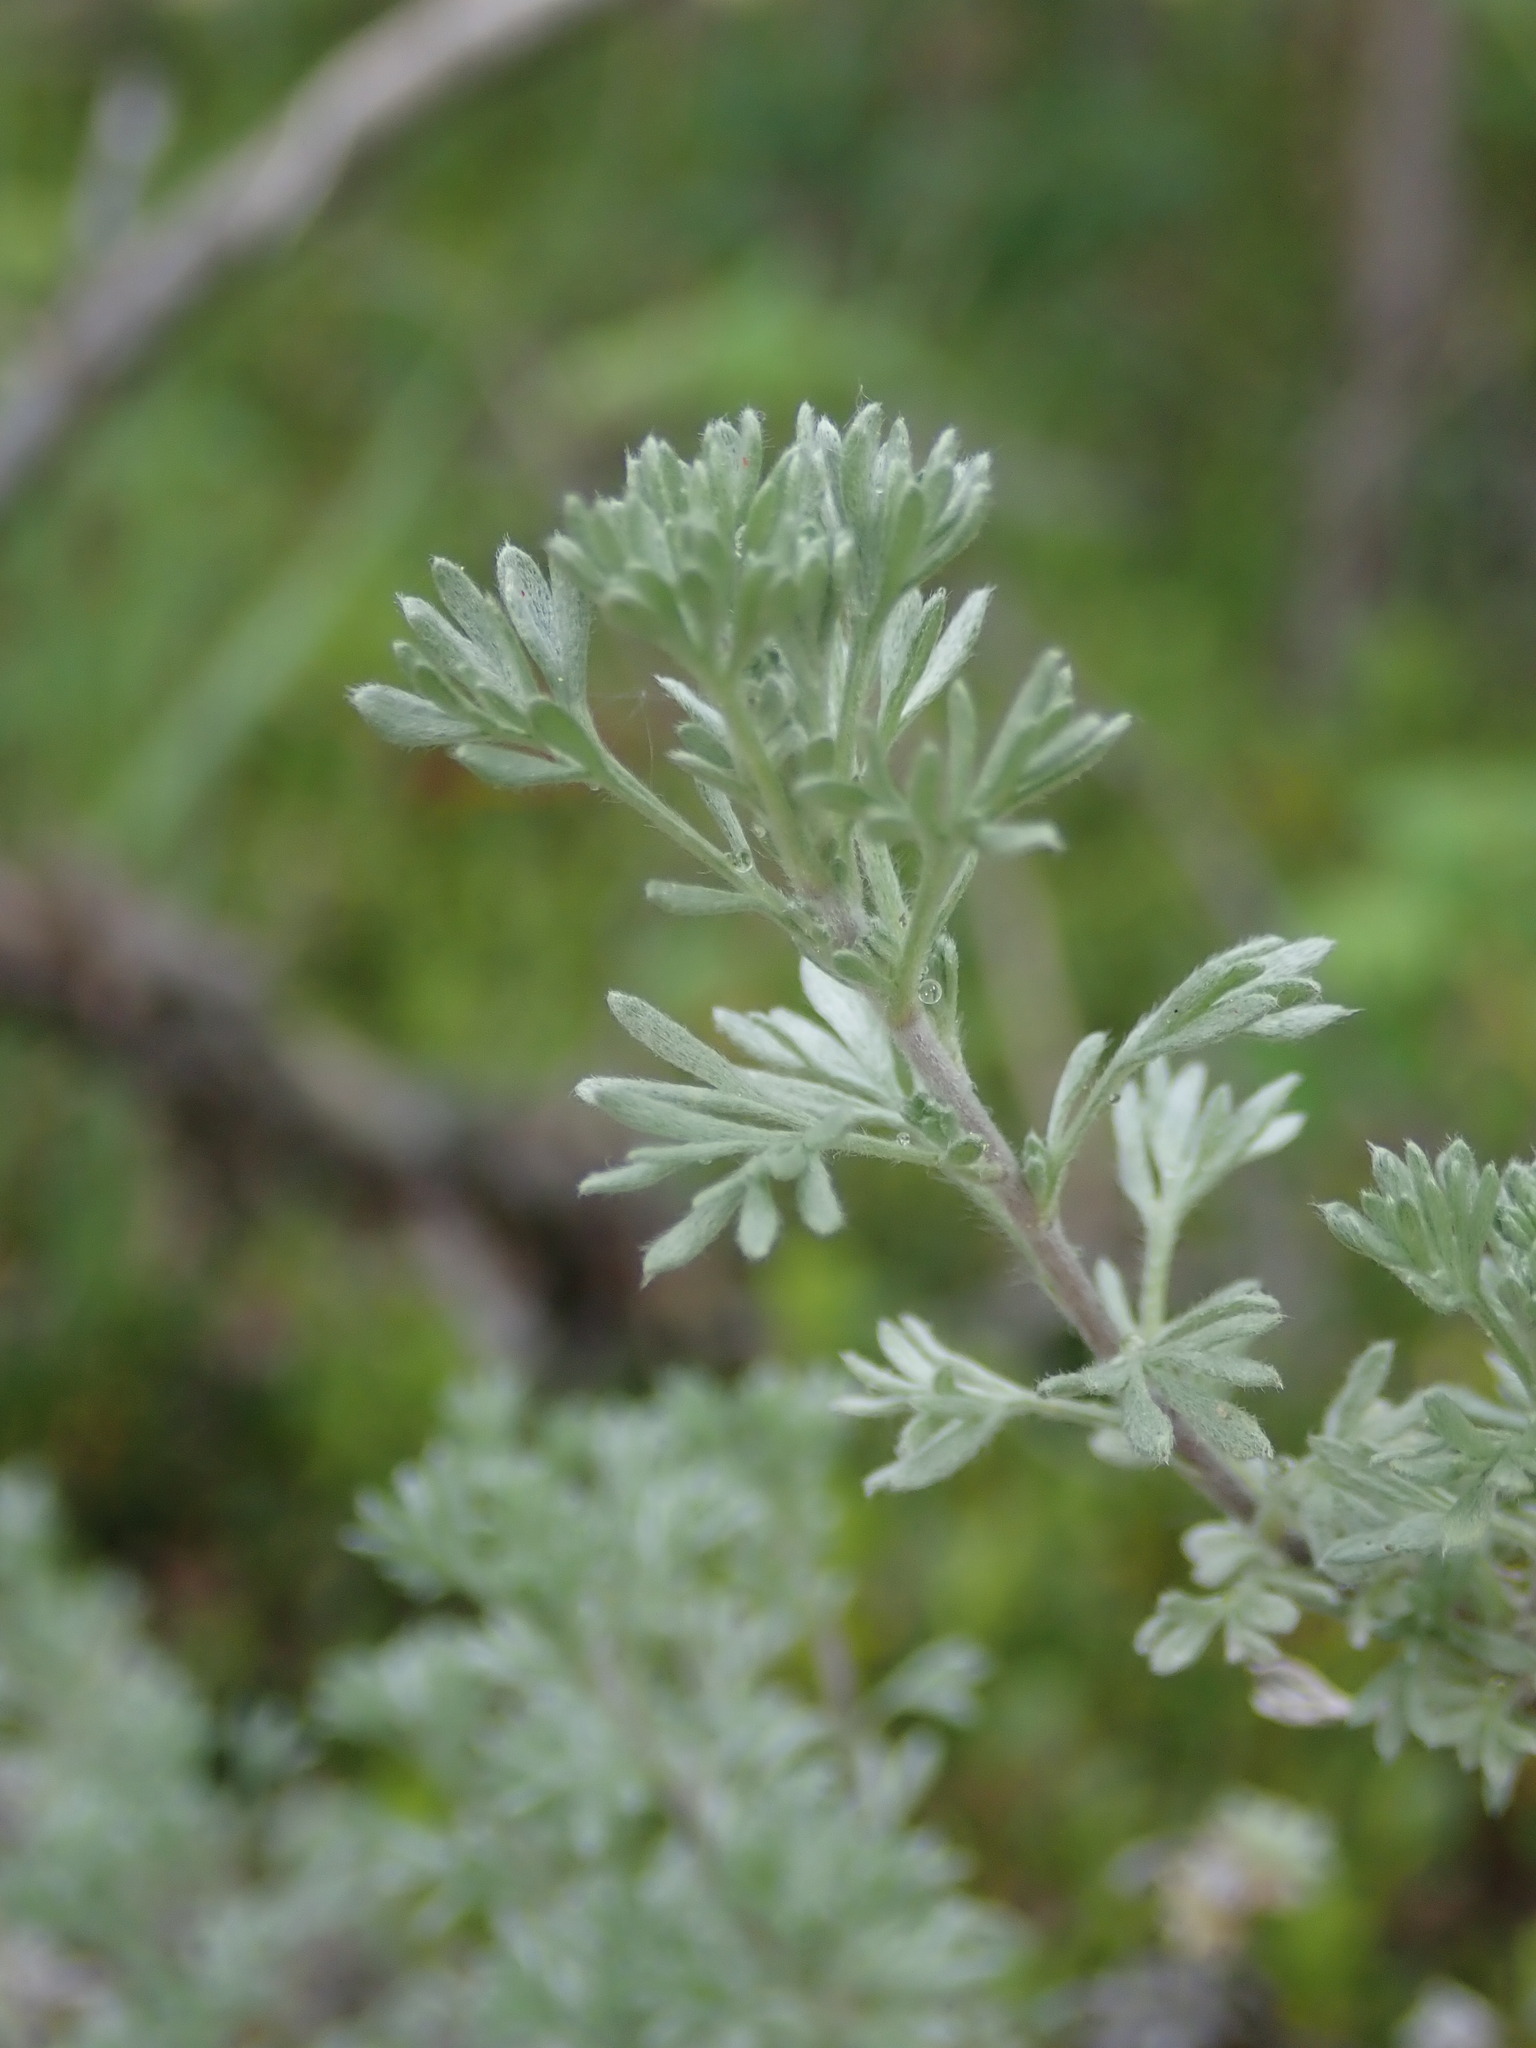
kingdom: Plantae
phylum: Tracheophyta
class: Magnoliopsida
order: Asterales
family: Asteraceae
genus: Artemisia
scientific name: Artemisia frigida
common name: Prairie sagewort
